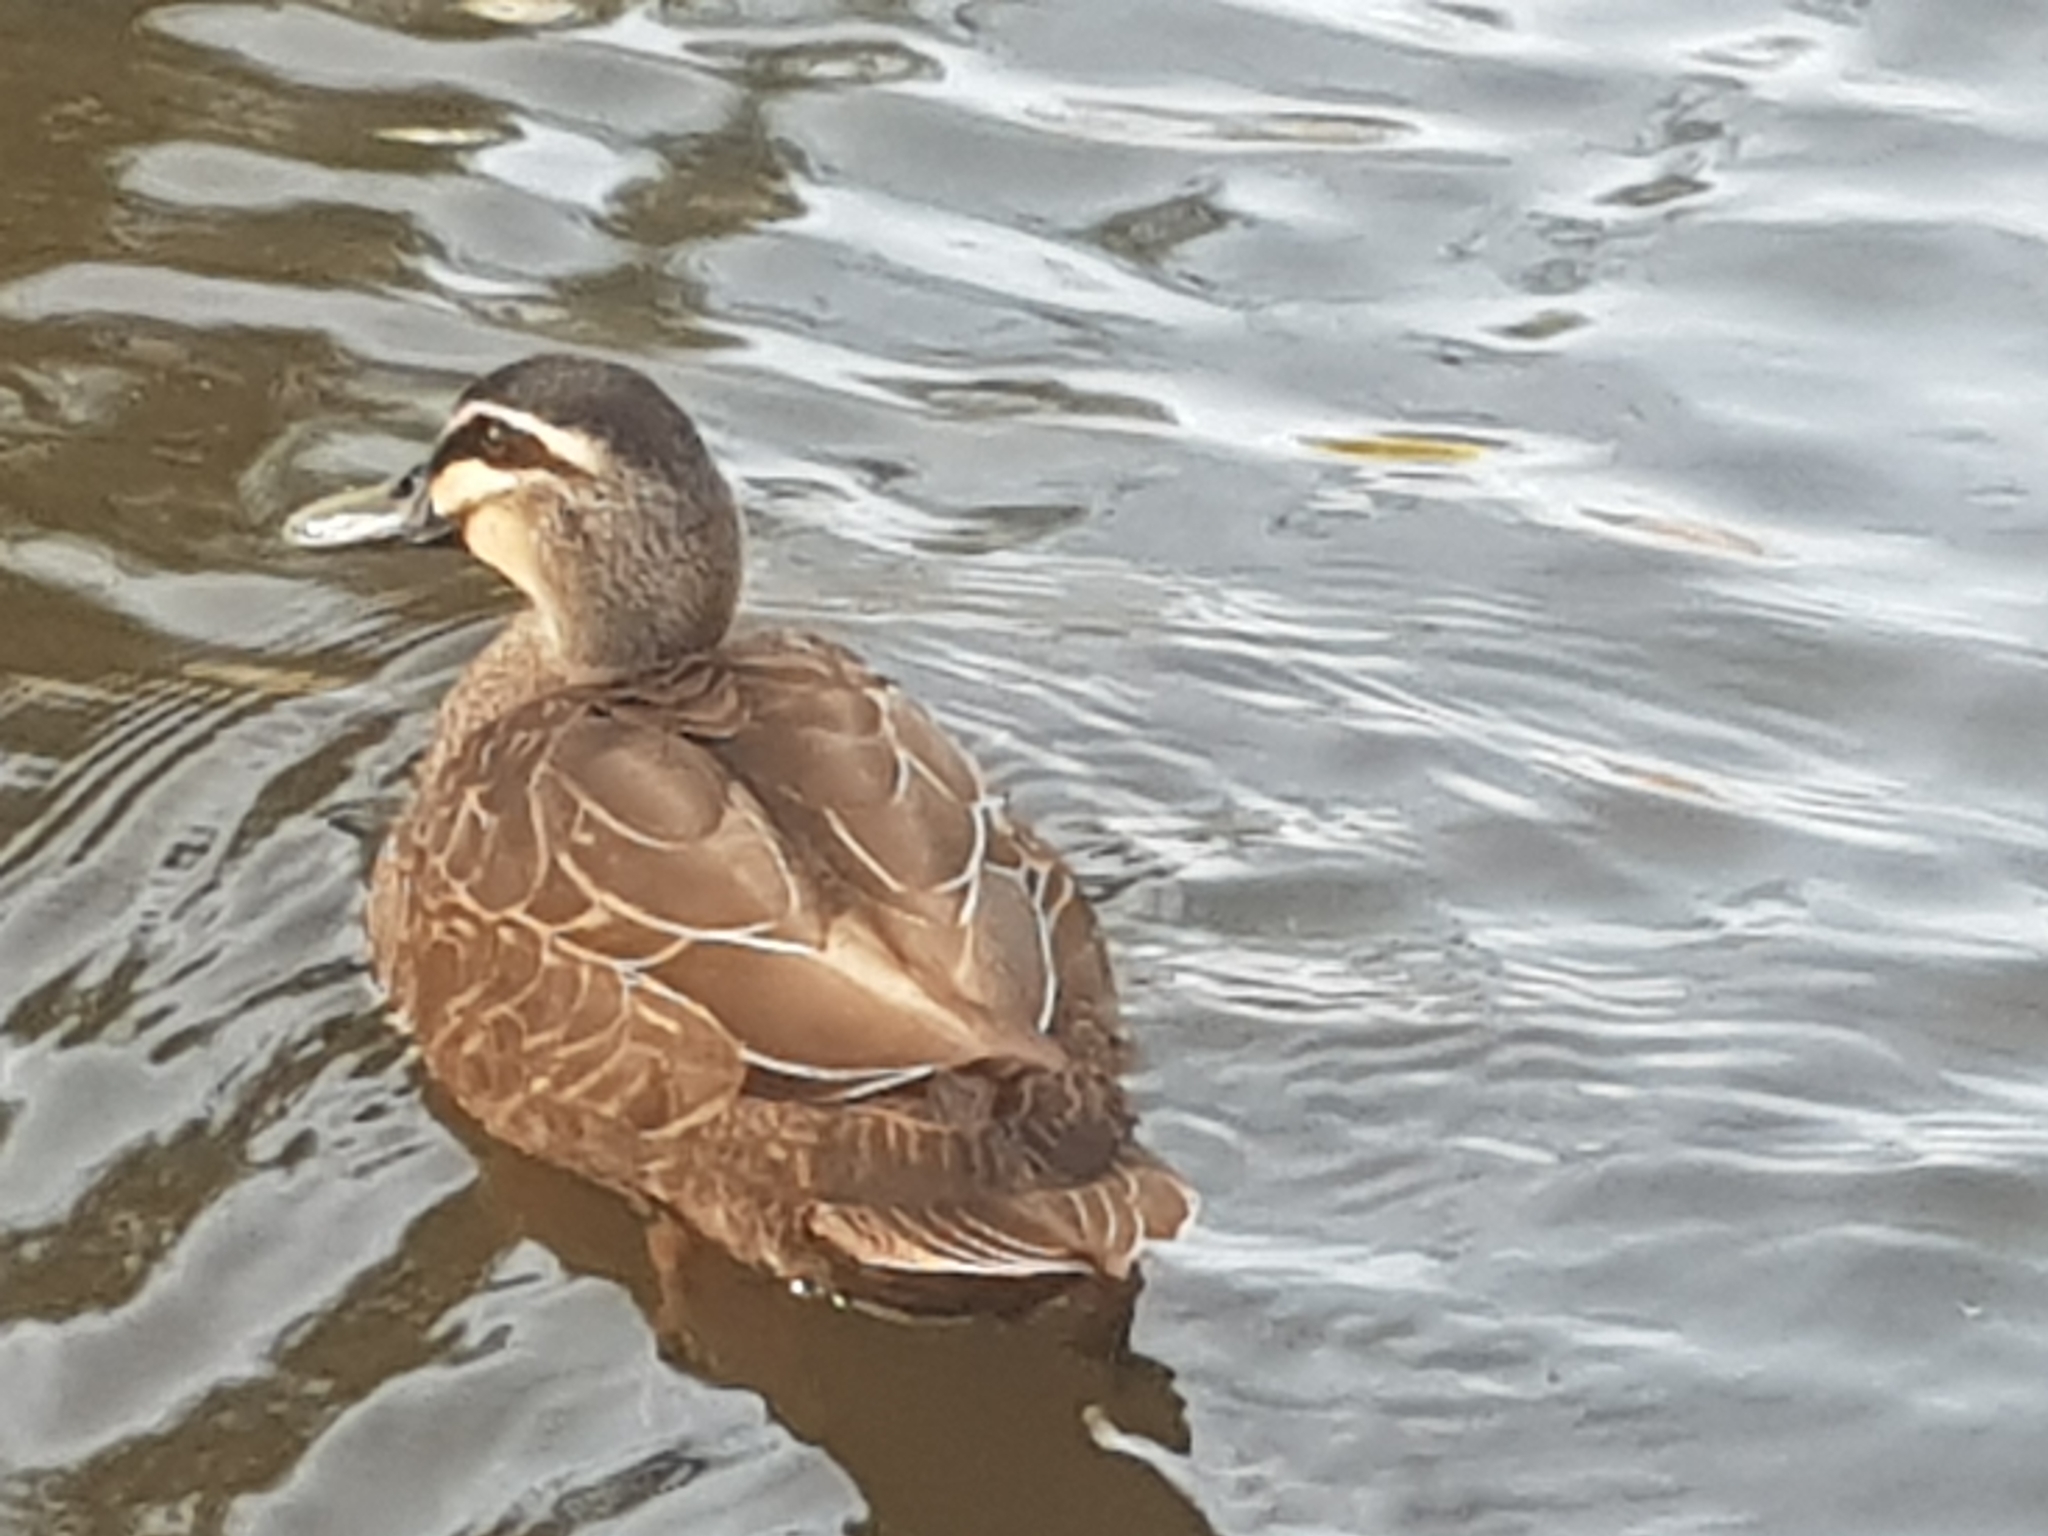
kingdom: Animalia
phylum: Chordata
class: Aves
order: Anseriformes
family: Anatidae
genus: Anas
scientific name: Anas superciliosa
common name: Pacific black duck
